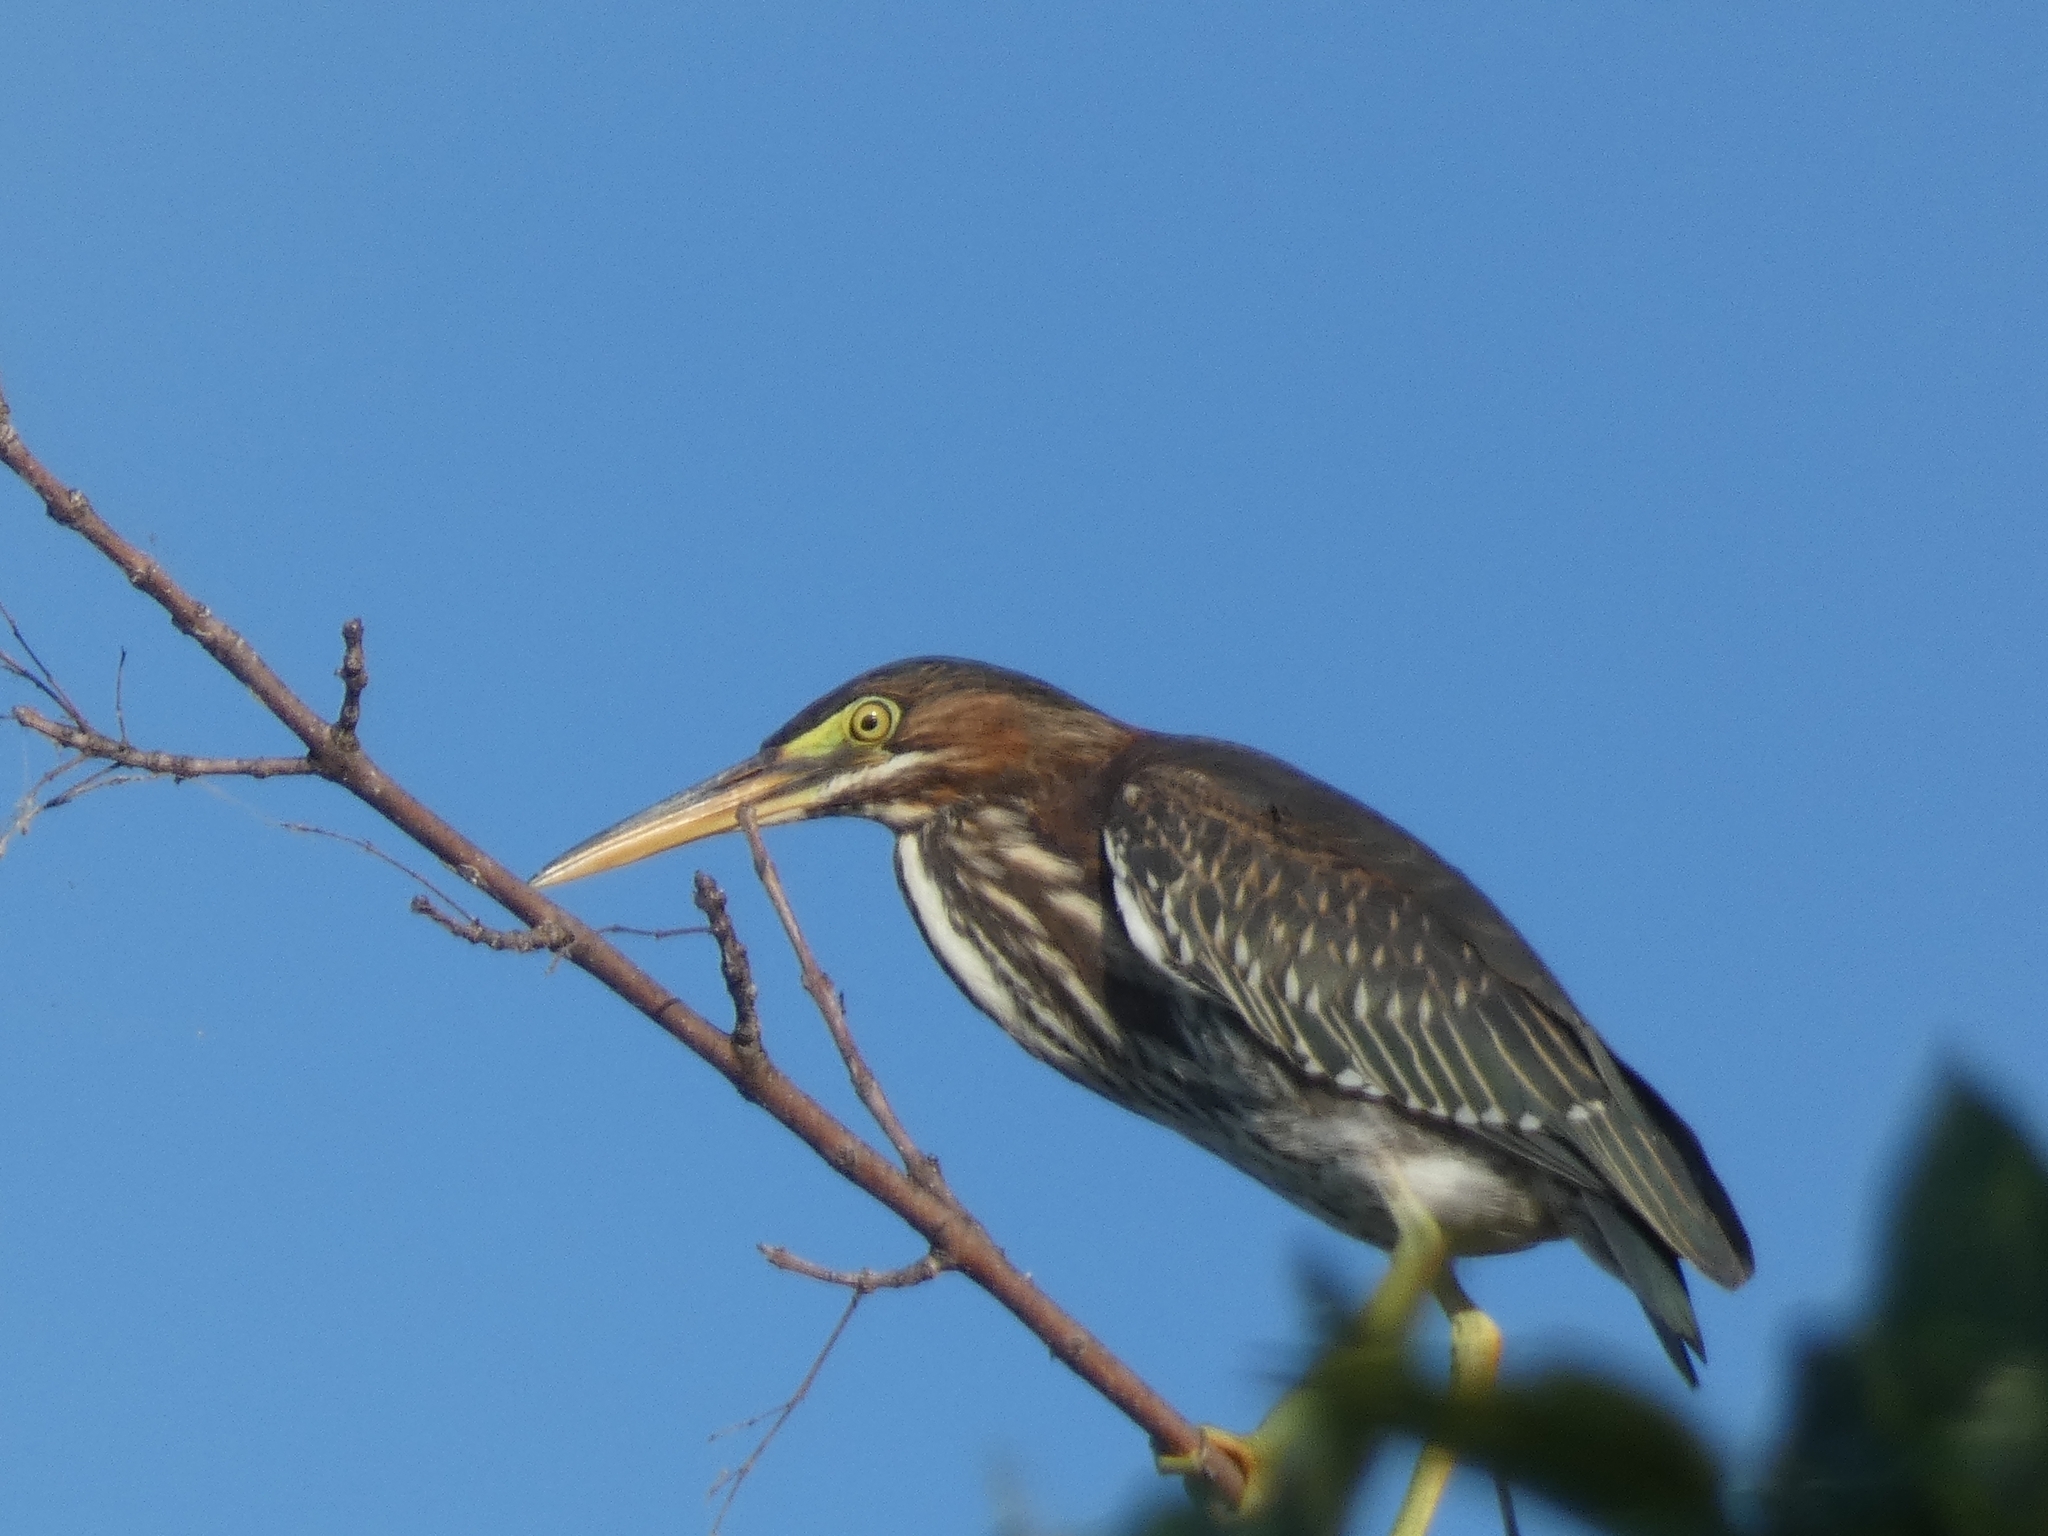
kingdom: Animalia
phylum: Chordata
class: Aves
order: Pelecaniformes
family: Ardeidae
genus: Butorides
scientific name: Butorides virescens
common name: Green heron
